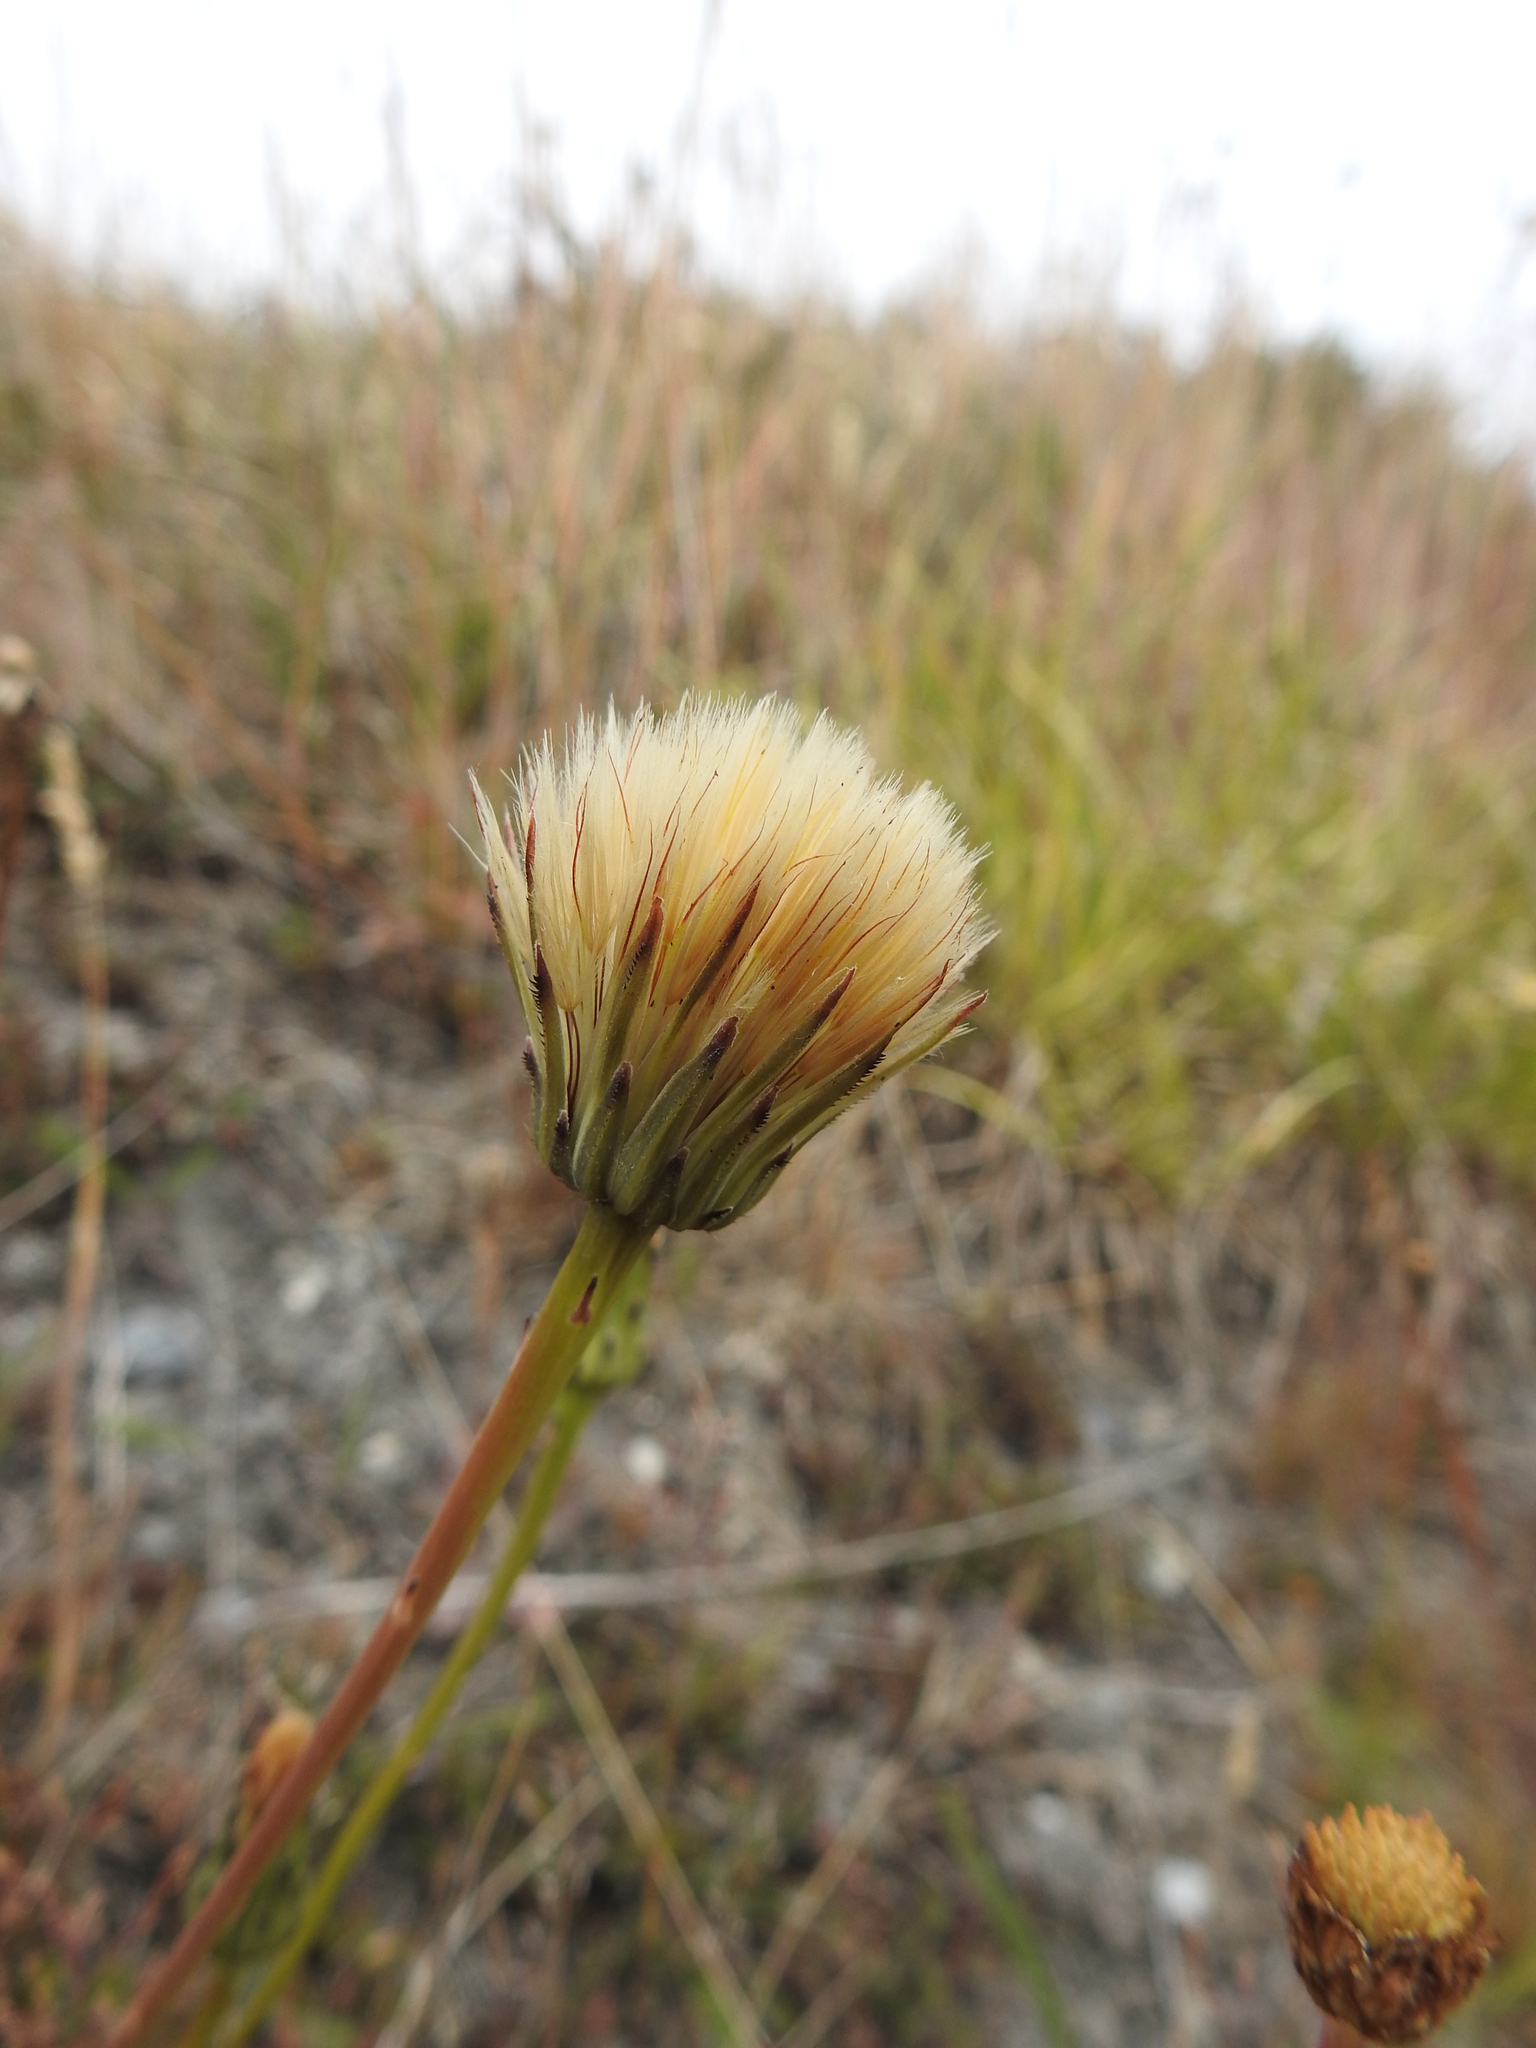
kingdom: Plantae
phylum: Tracheophyta
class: Magnoliopsida
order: Asterales
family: Asteraceae
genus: Hypochaeris
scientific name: Hypochaeris radicata
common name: Flatweed
